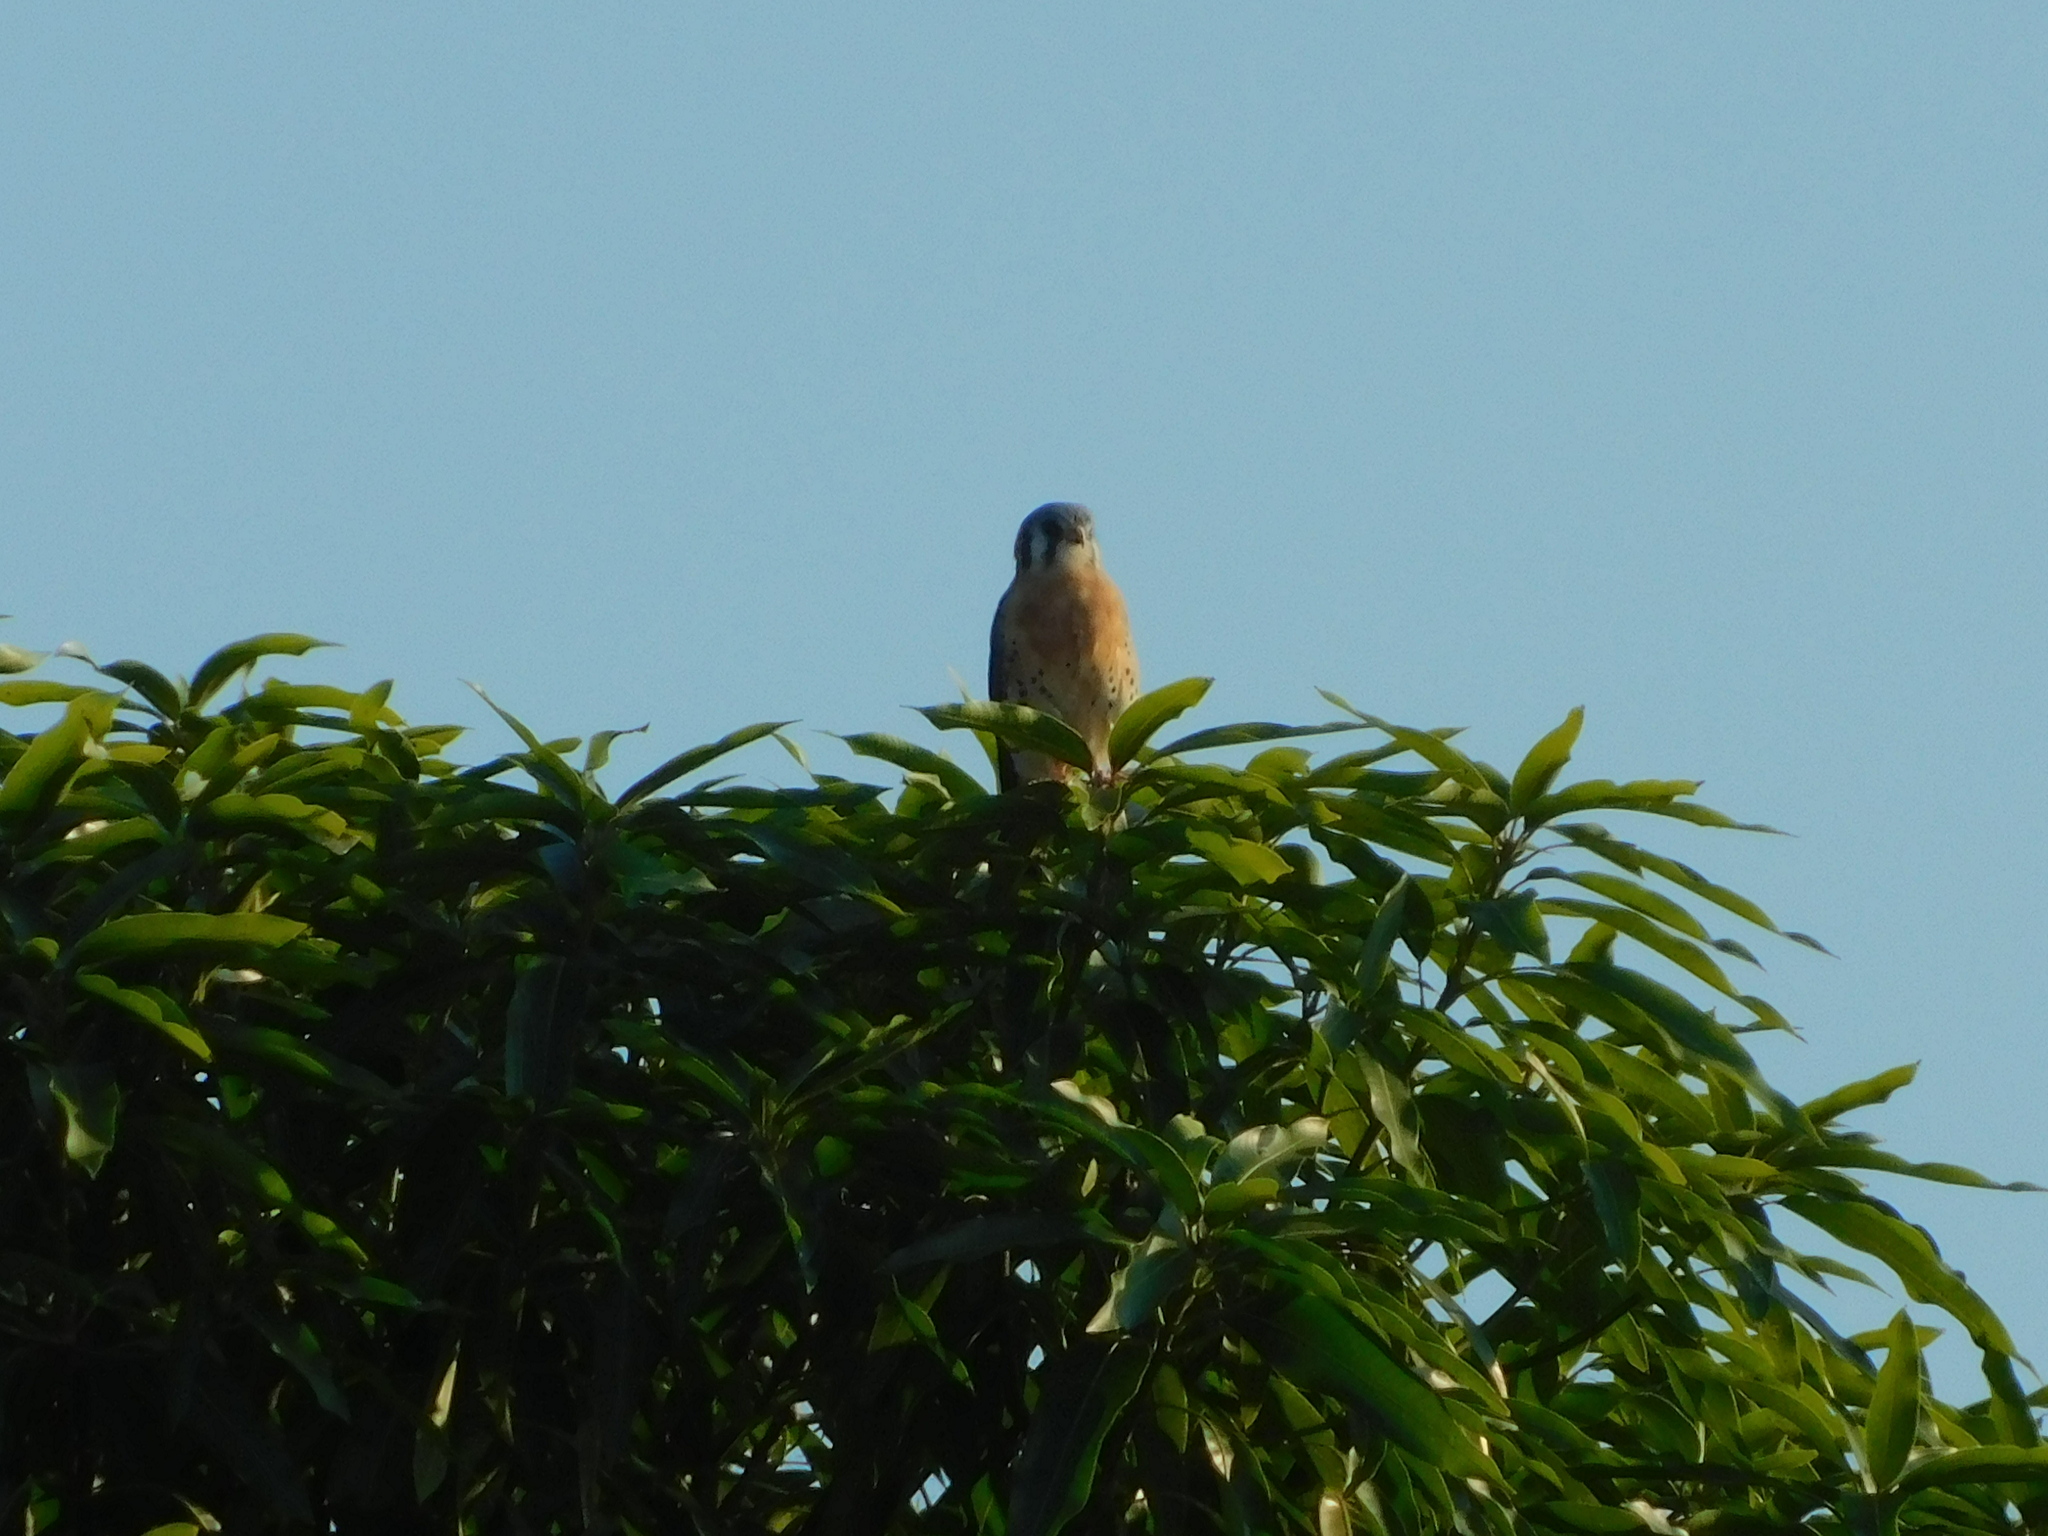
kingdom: Animalia
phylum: Chordata
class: Aves
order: Falconiformes
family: Falconidae
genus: Falco
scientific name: Falco sparverius
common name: American kestrel
